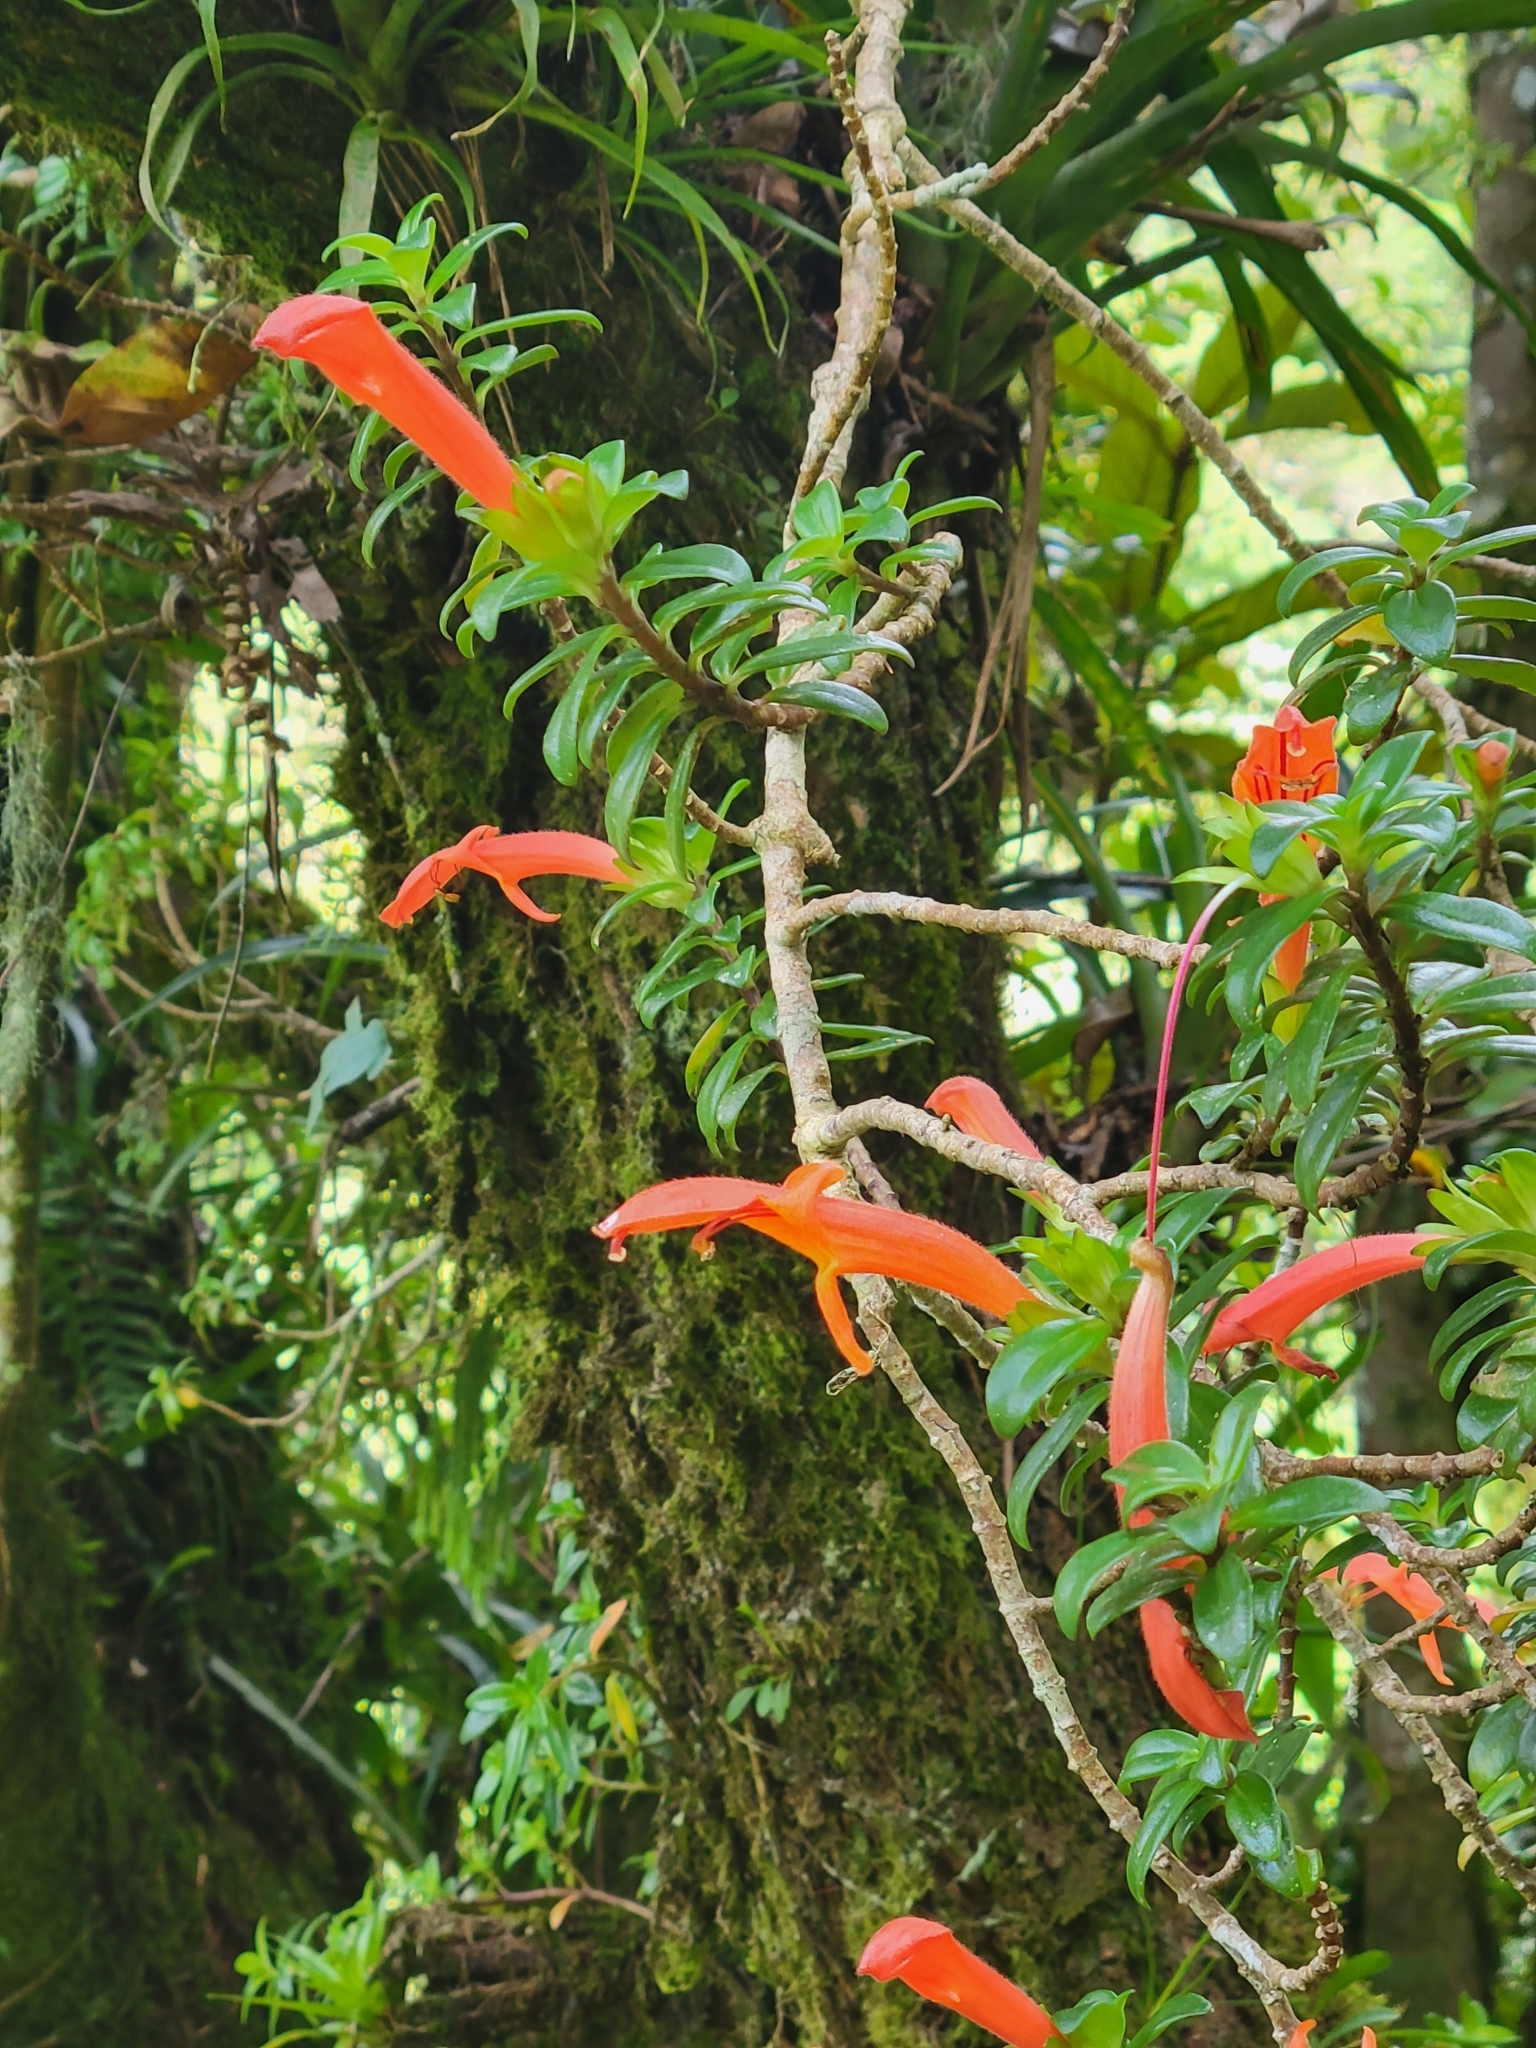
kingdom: Plantae
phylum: Tracheophyta
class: Magnoliopsida
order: Lamiales
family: Gesneriaceae
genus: Columnea
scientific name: Columnea glabra
